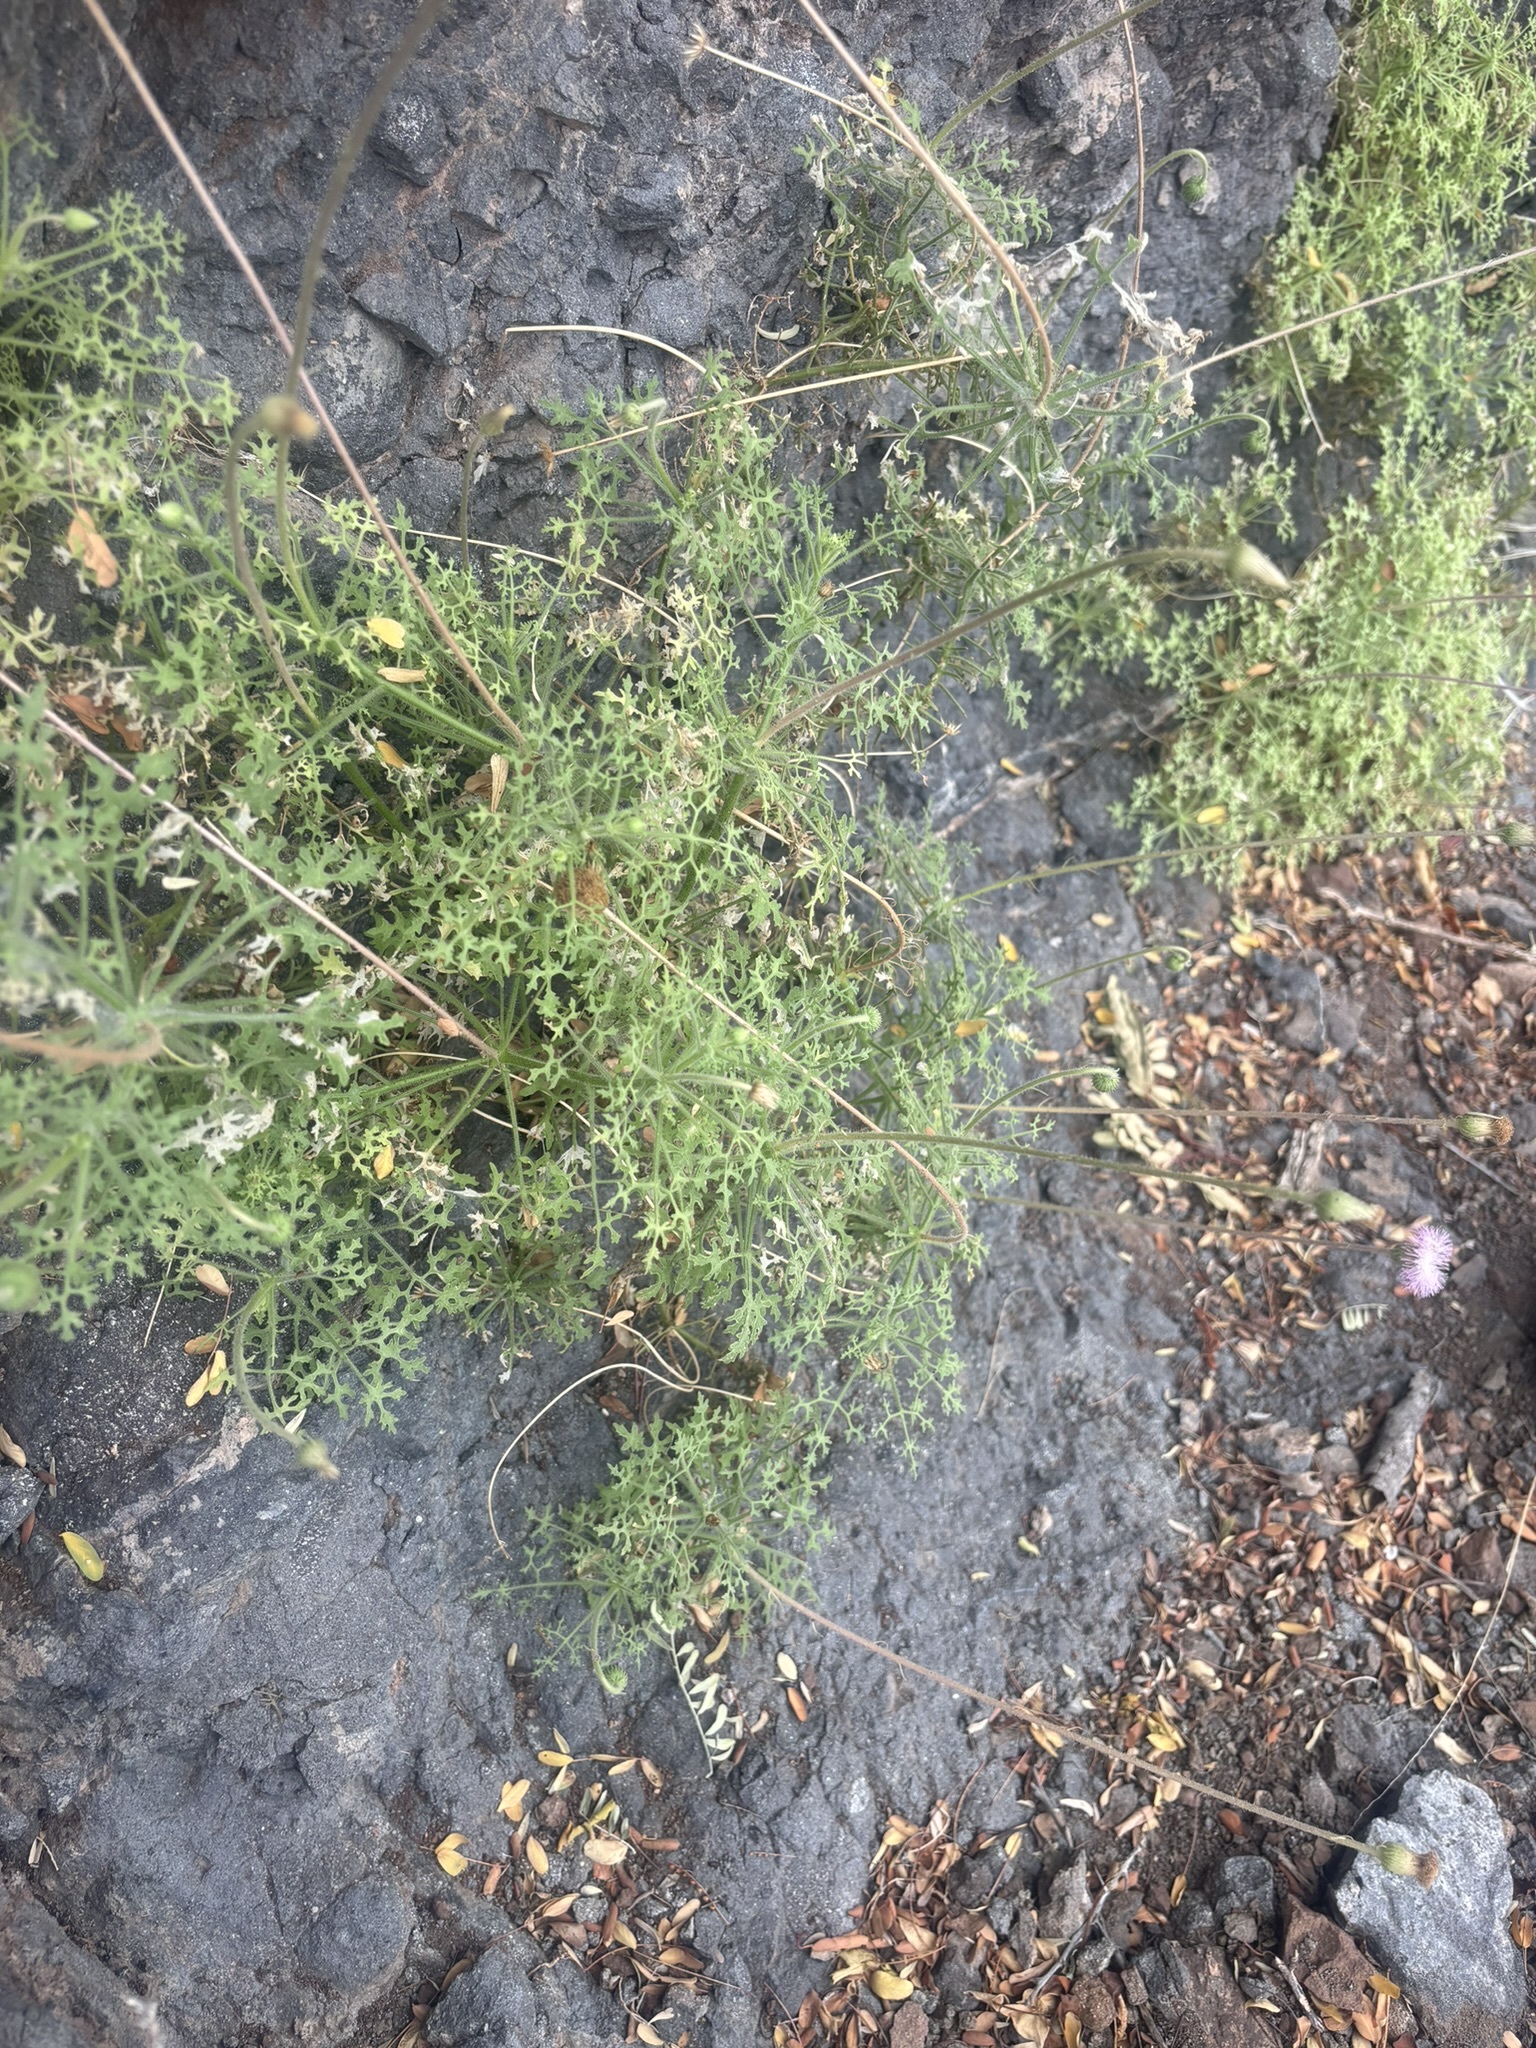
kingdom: Plantae
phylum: Tracheophyta
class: Magnoliopsida
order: Asterales
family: Asteraceae
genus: Hofmeisteria
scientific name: Hofmeisteria fasciculata
